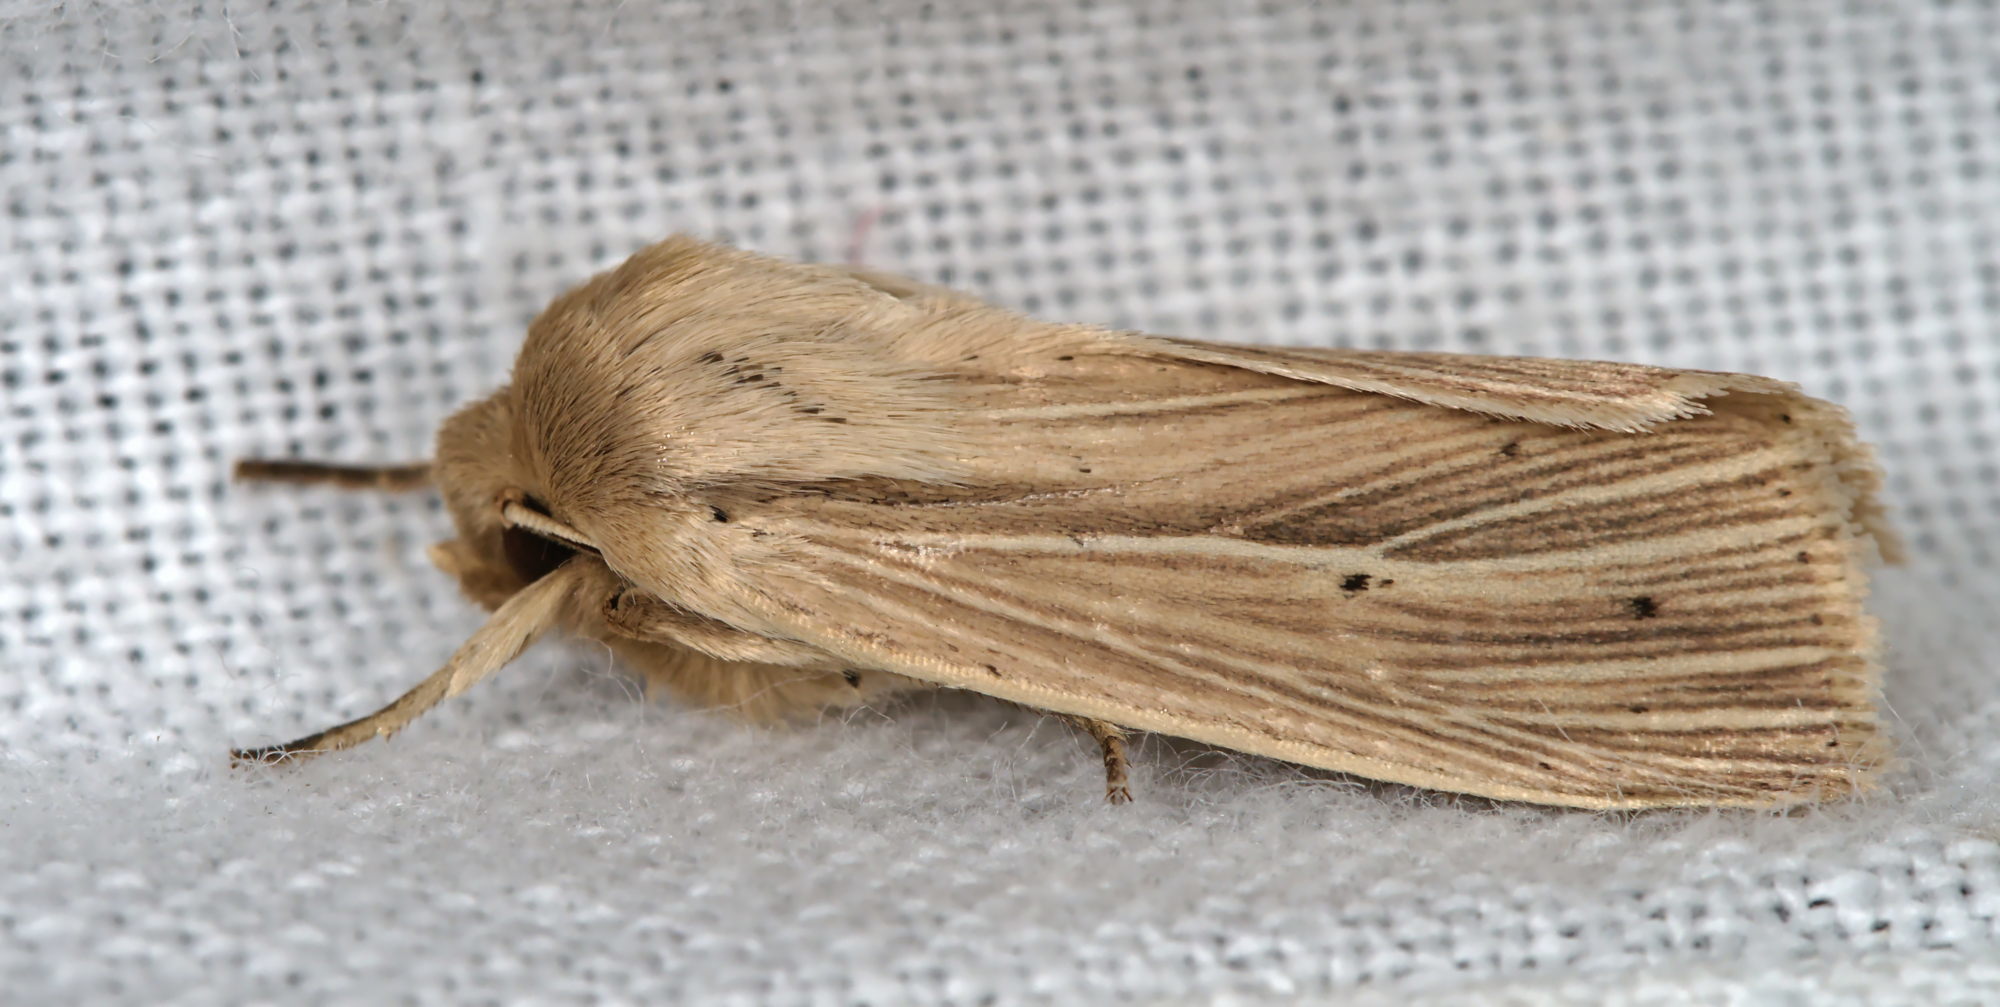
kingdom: Animalia
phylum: Arthropoda
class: Insecta
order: Lepidoptera
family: Noctuidae
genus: Mythimna
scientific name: Mythimna impura
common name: Smoky wainscot
